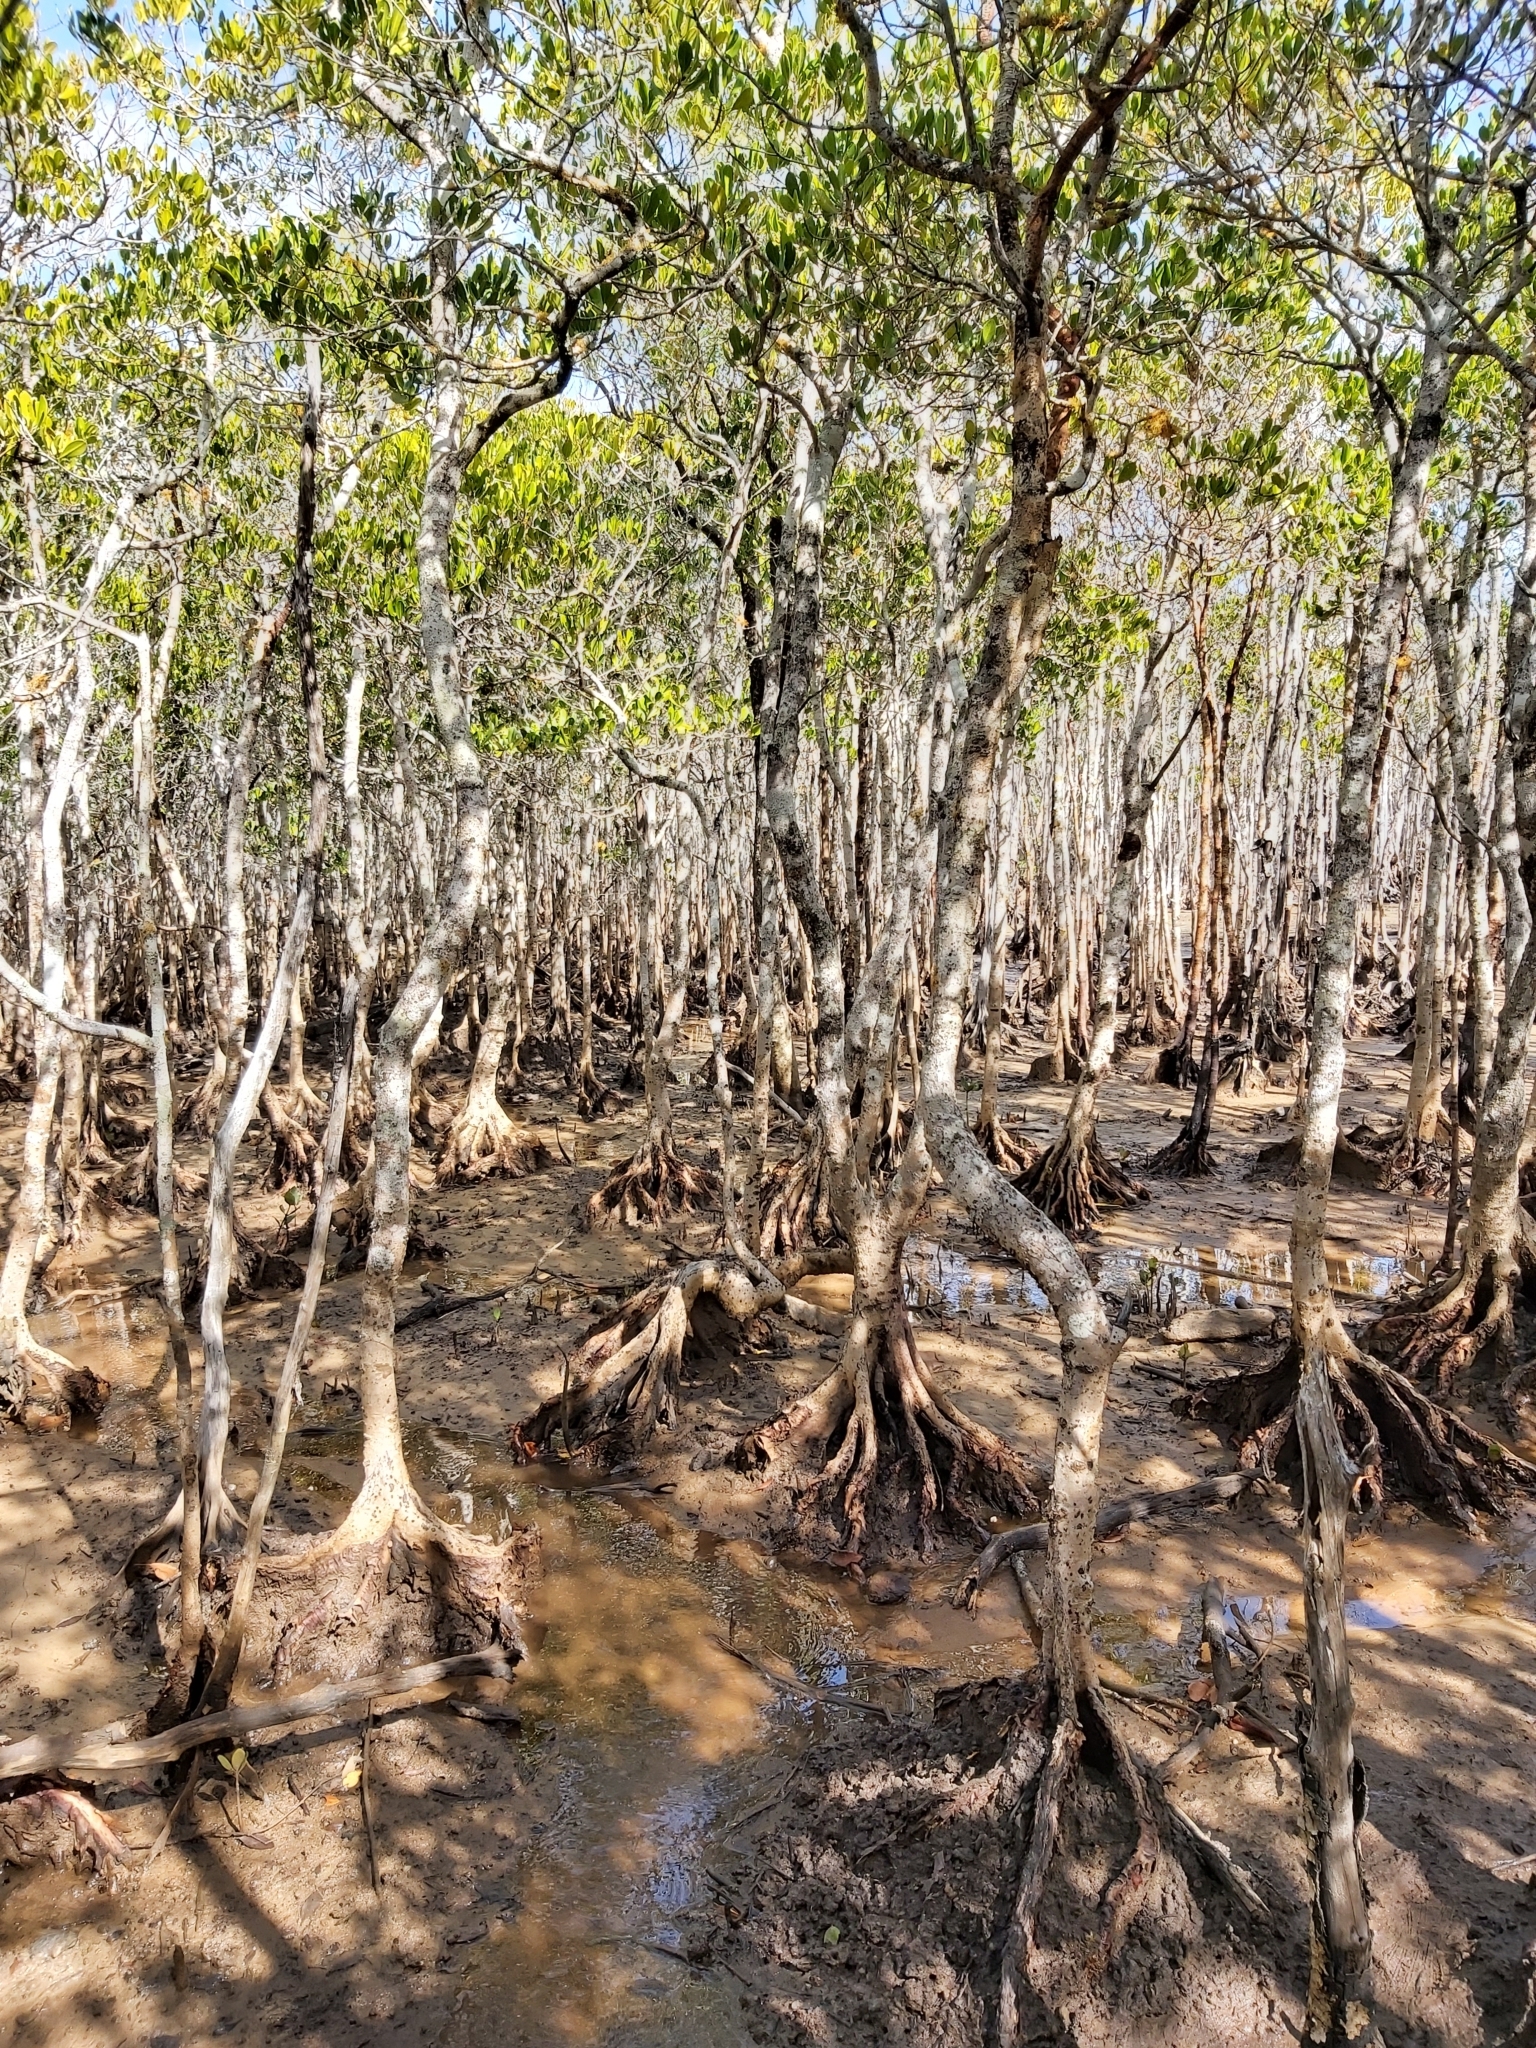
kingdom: Plantae
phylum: Tracheophyta
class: Magnoliopsida
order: Malpighiales
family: Rhizophoraceae
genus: Ceriops
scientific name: Ceriops australis
